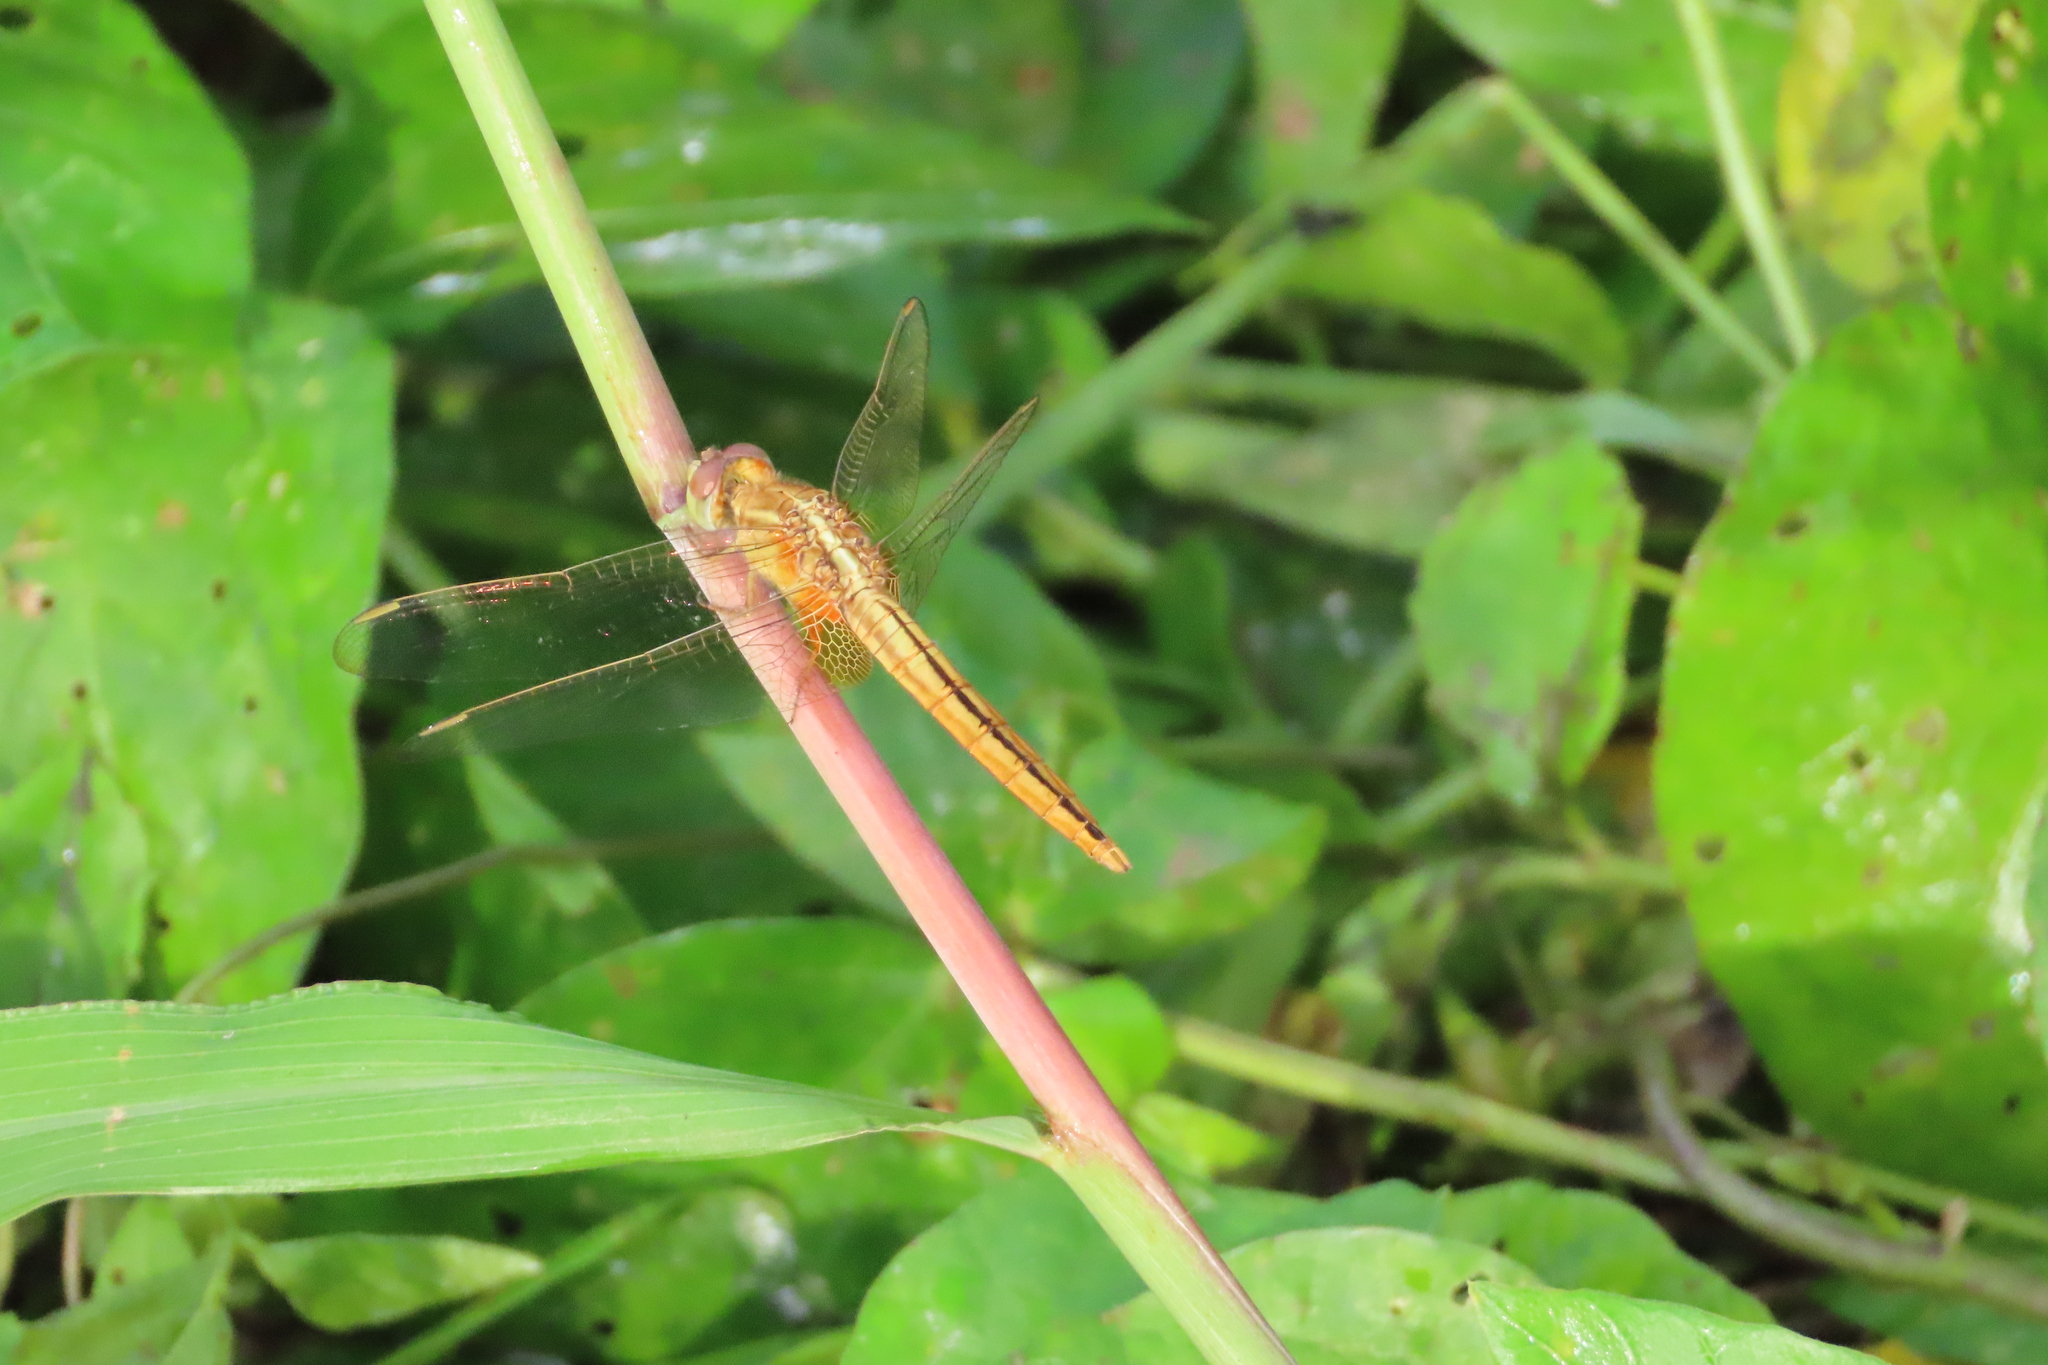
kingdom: Animalia
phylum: Arthropoda
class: Insecta
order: Odonata
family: Libellulidae
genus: Crocothemis
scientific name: Crocothemis servilia
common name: Scarlet skimmer
